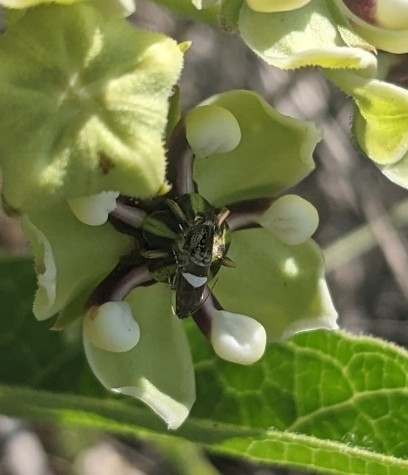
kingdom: Animalia
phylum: Arthropoda
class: Insecta
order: Lepidoptera
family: Glyphipterigidae
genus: Glyphipterix
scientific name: Glyphipterix circumscriptella
